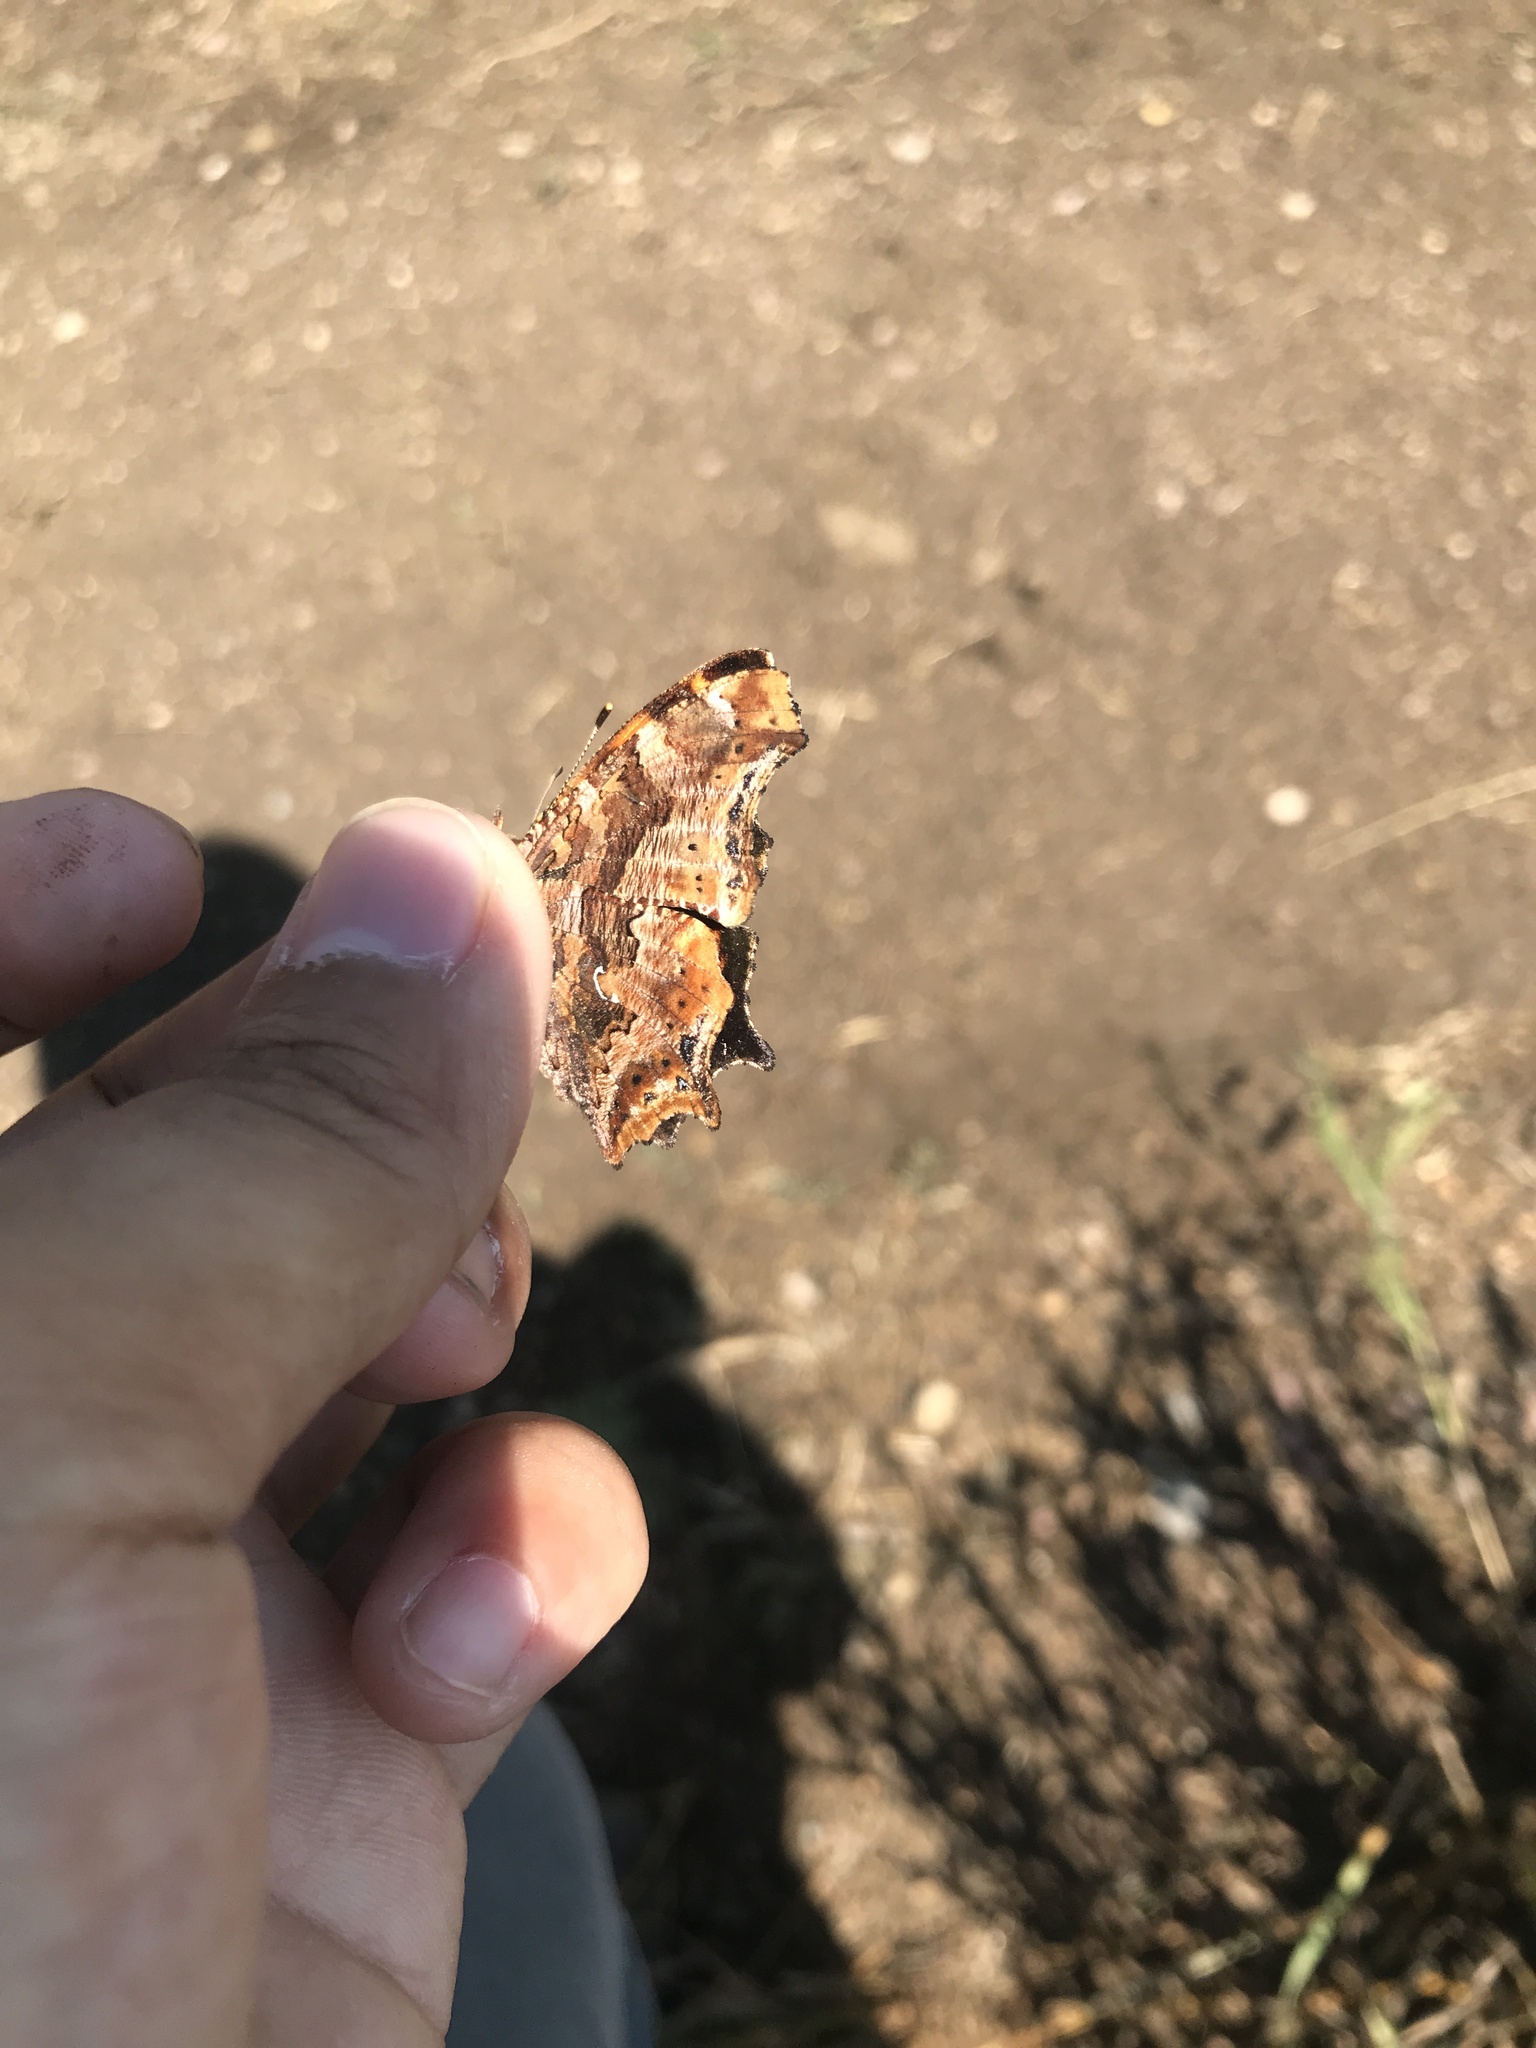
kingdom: Animalia
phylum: Arthropoda
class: Insecta
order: Lepidoptera
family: Nymphalidae
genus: Polygonia
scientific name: Polygonia comma
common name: Eastern comma
